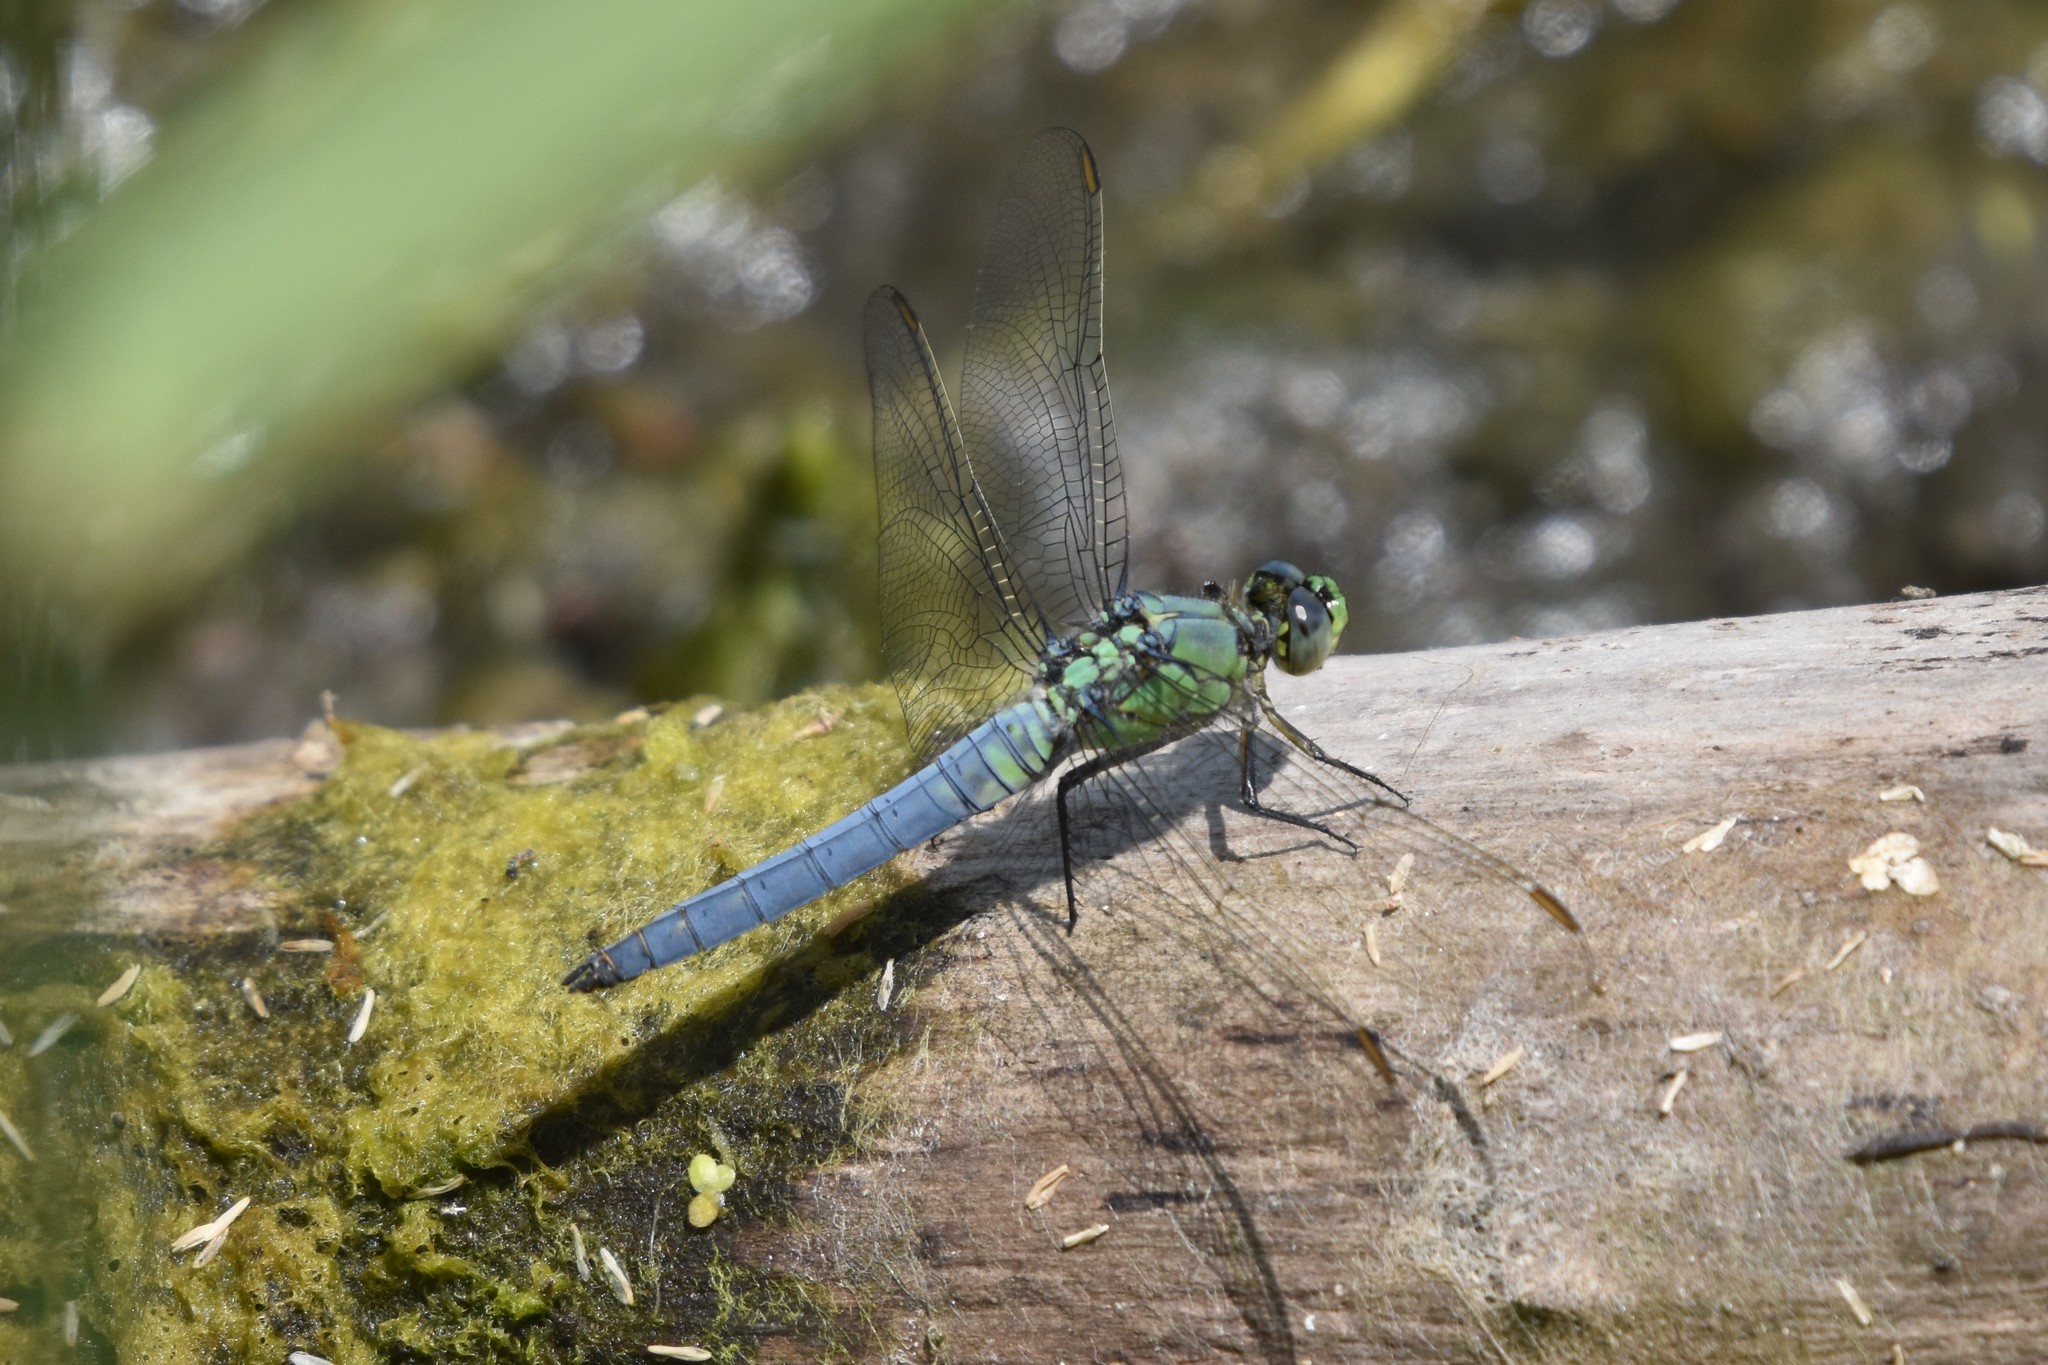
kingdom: Animalia
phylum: Arthropoda
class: Insecta
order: Odonata
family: Libellulidae
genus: Erythemis
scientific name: Erythemis collocata
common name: Western pondhawk
